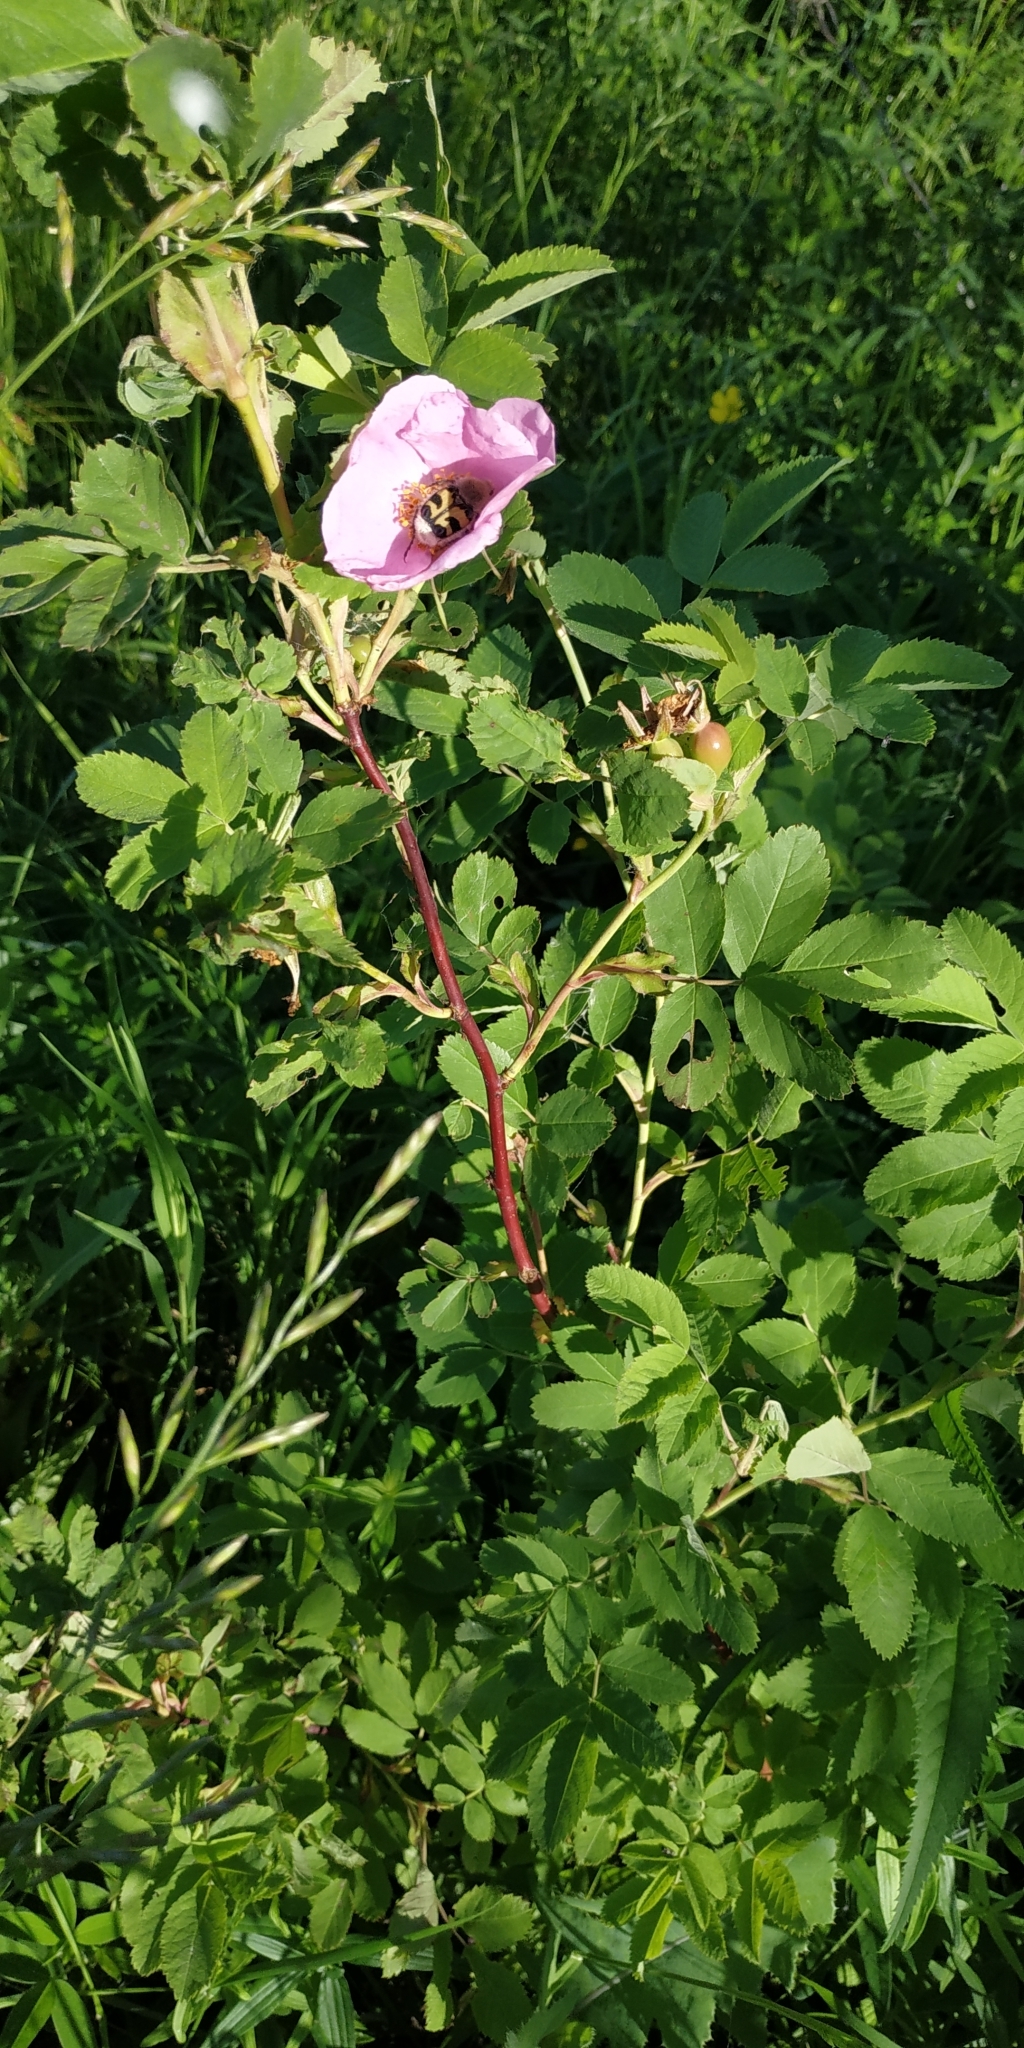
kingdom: Plantae
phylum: Tracheophyta
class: Magnoliopsida
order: Rosales
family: Rosaceae
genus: Rosa
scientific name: Rosa majalis
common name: Cinnamon rose
